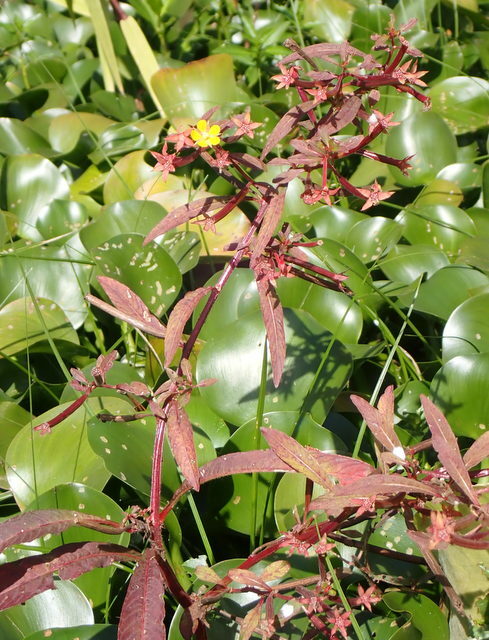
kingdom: Plantae
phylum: Tracheophyta
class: Magnoliopsida
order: Myrtales
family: Onagraceae
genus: Ludwigia
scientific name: Ludwigia leptocarpa
